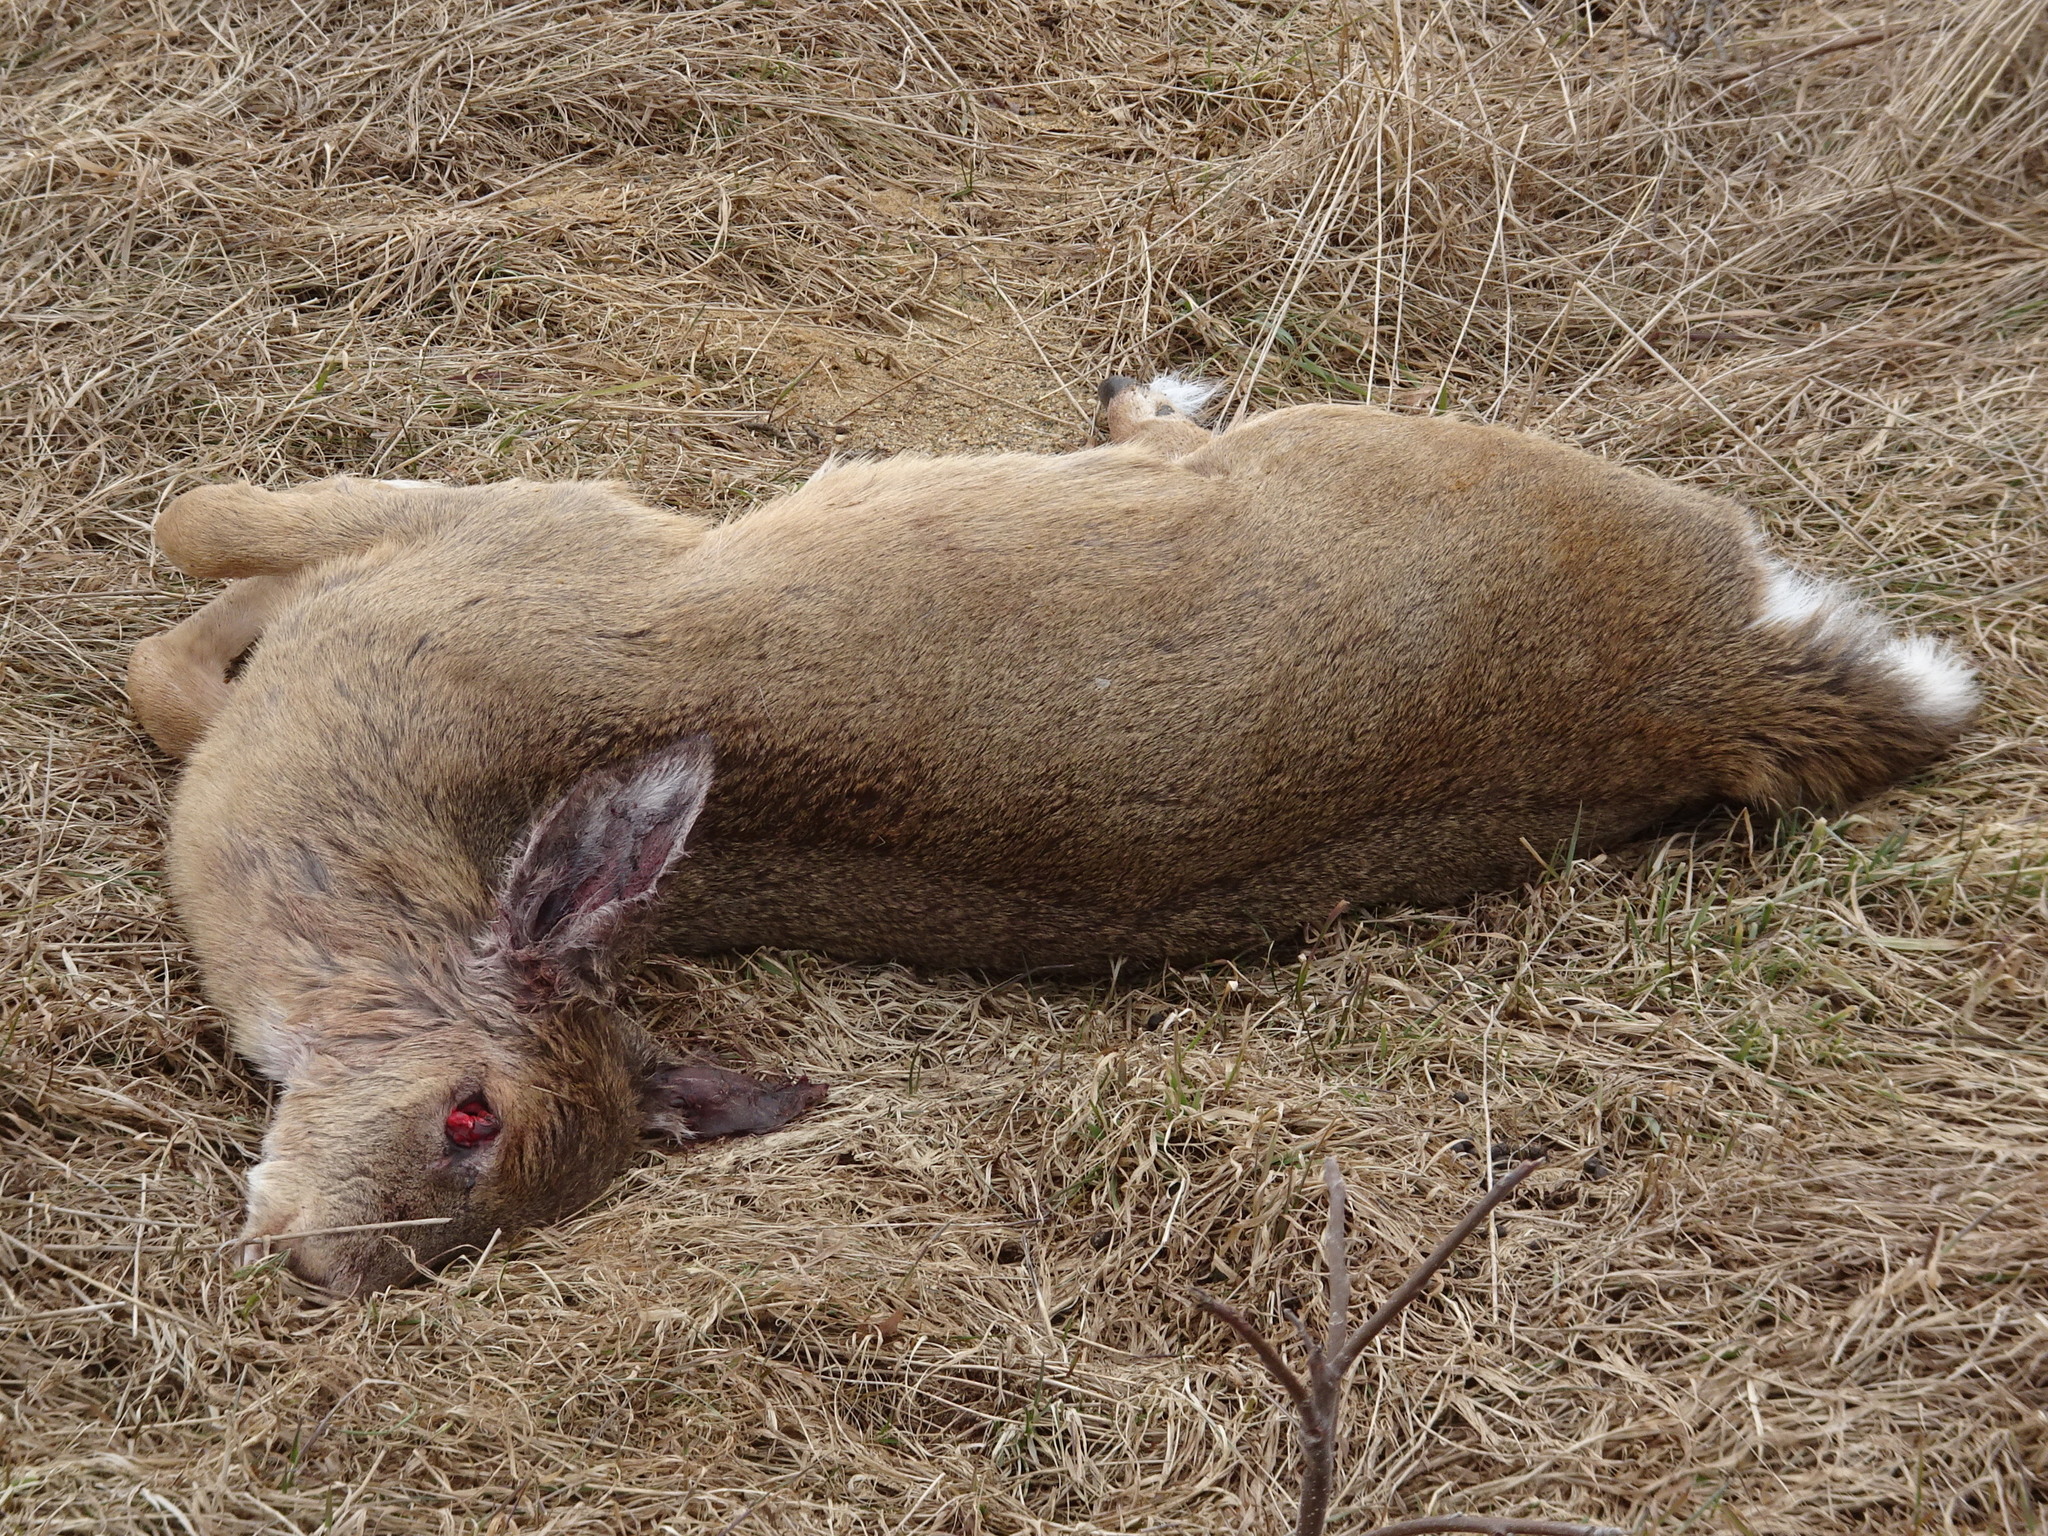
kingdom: Animalia
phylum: Chordata
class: Mammalia
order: Artiodactyla
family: Cervidae
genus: Odocoileus
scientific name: Odocoileus virginianus
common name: White-tailed deer
